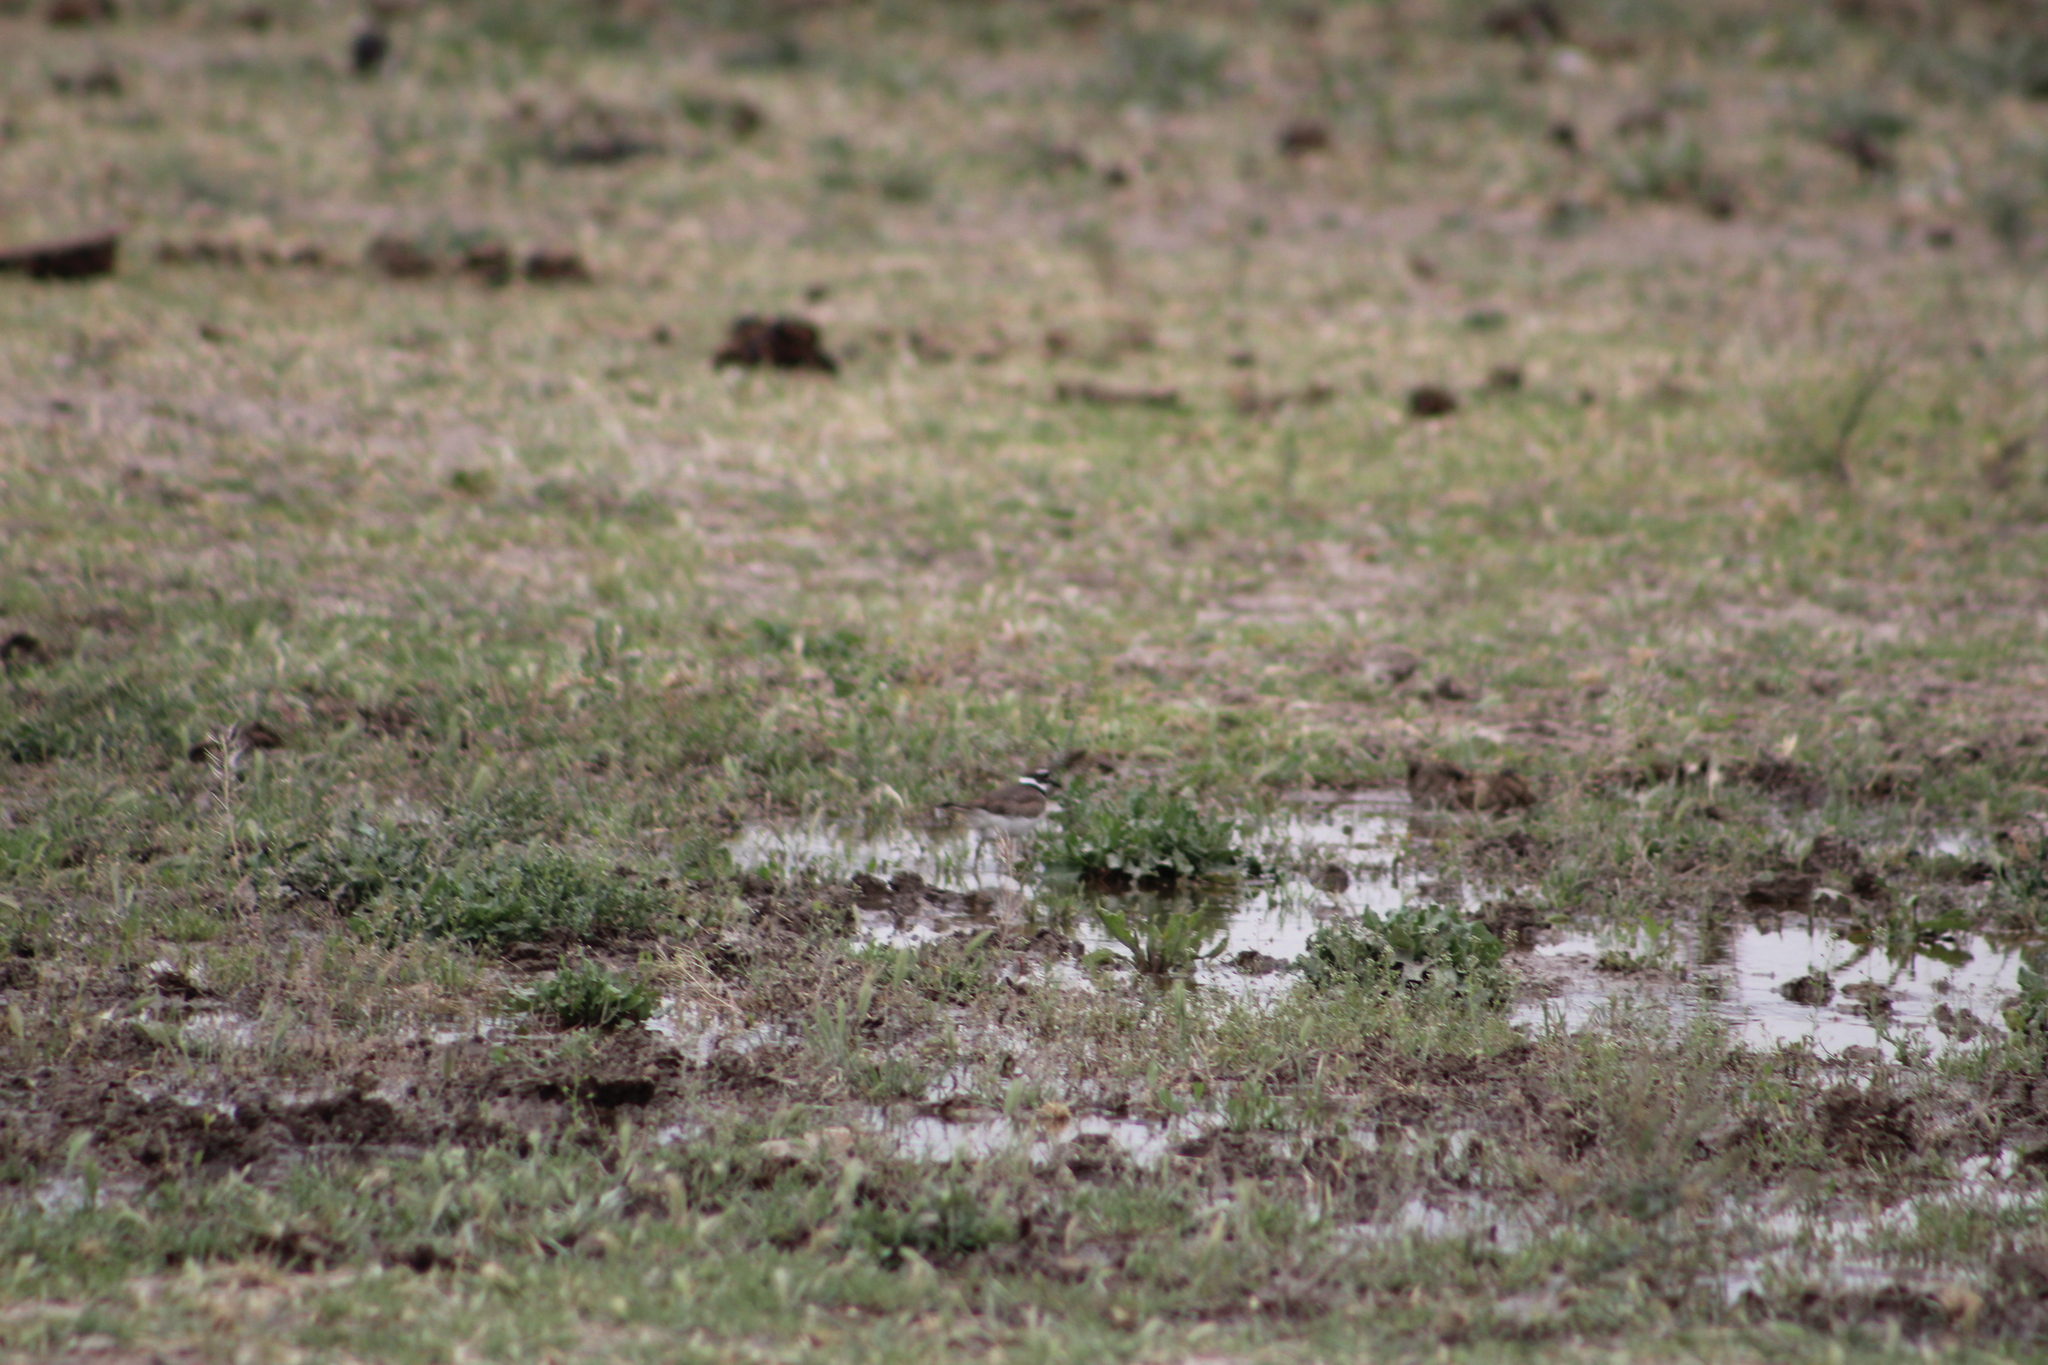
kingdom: Animalia
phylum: Chordata
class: Aves
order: Charadriiformes
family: Charadriidae
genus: Charadrius
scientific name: Charadrius vociferus
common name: Killdeer
